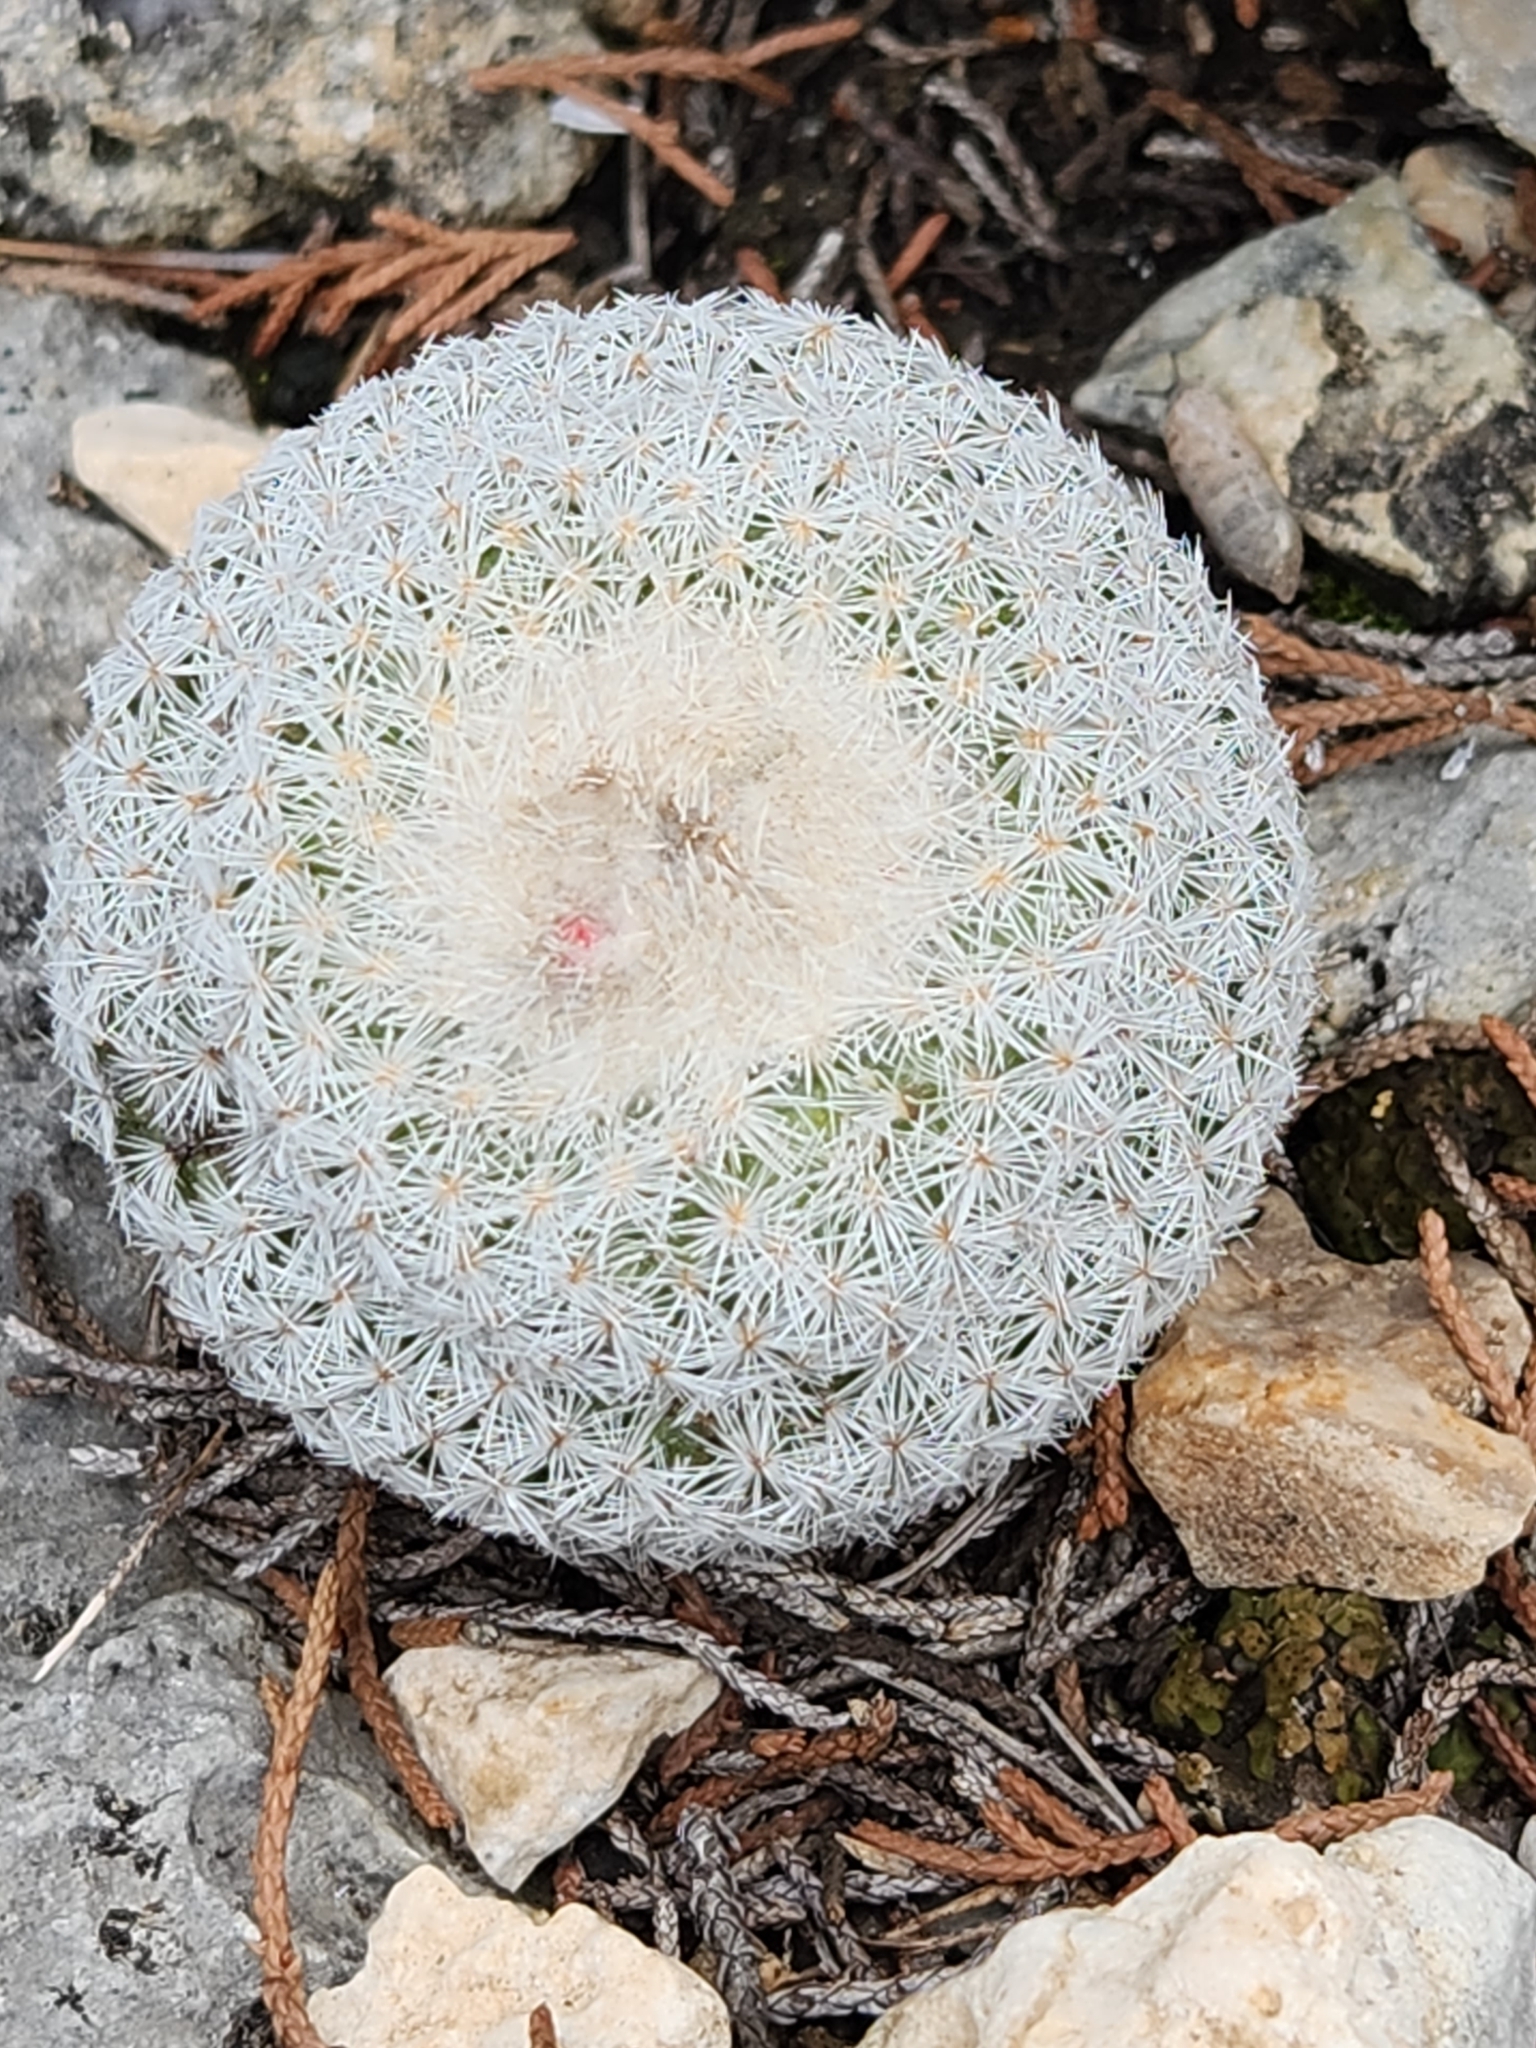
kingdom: Plantae
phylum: Tracheophyta
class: Magnoliopsida
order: Caryophyllales
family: Cactaceae
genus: Epithelantha
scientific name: Epithelantha micromeris
